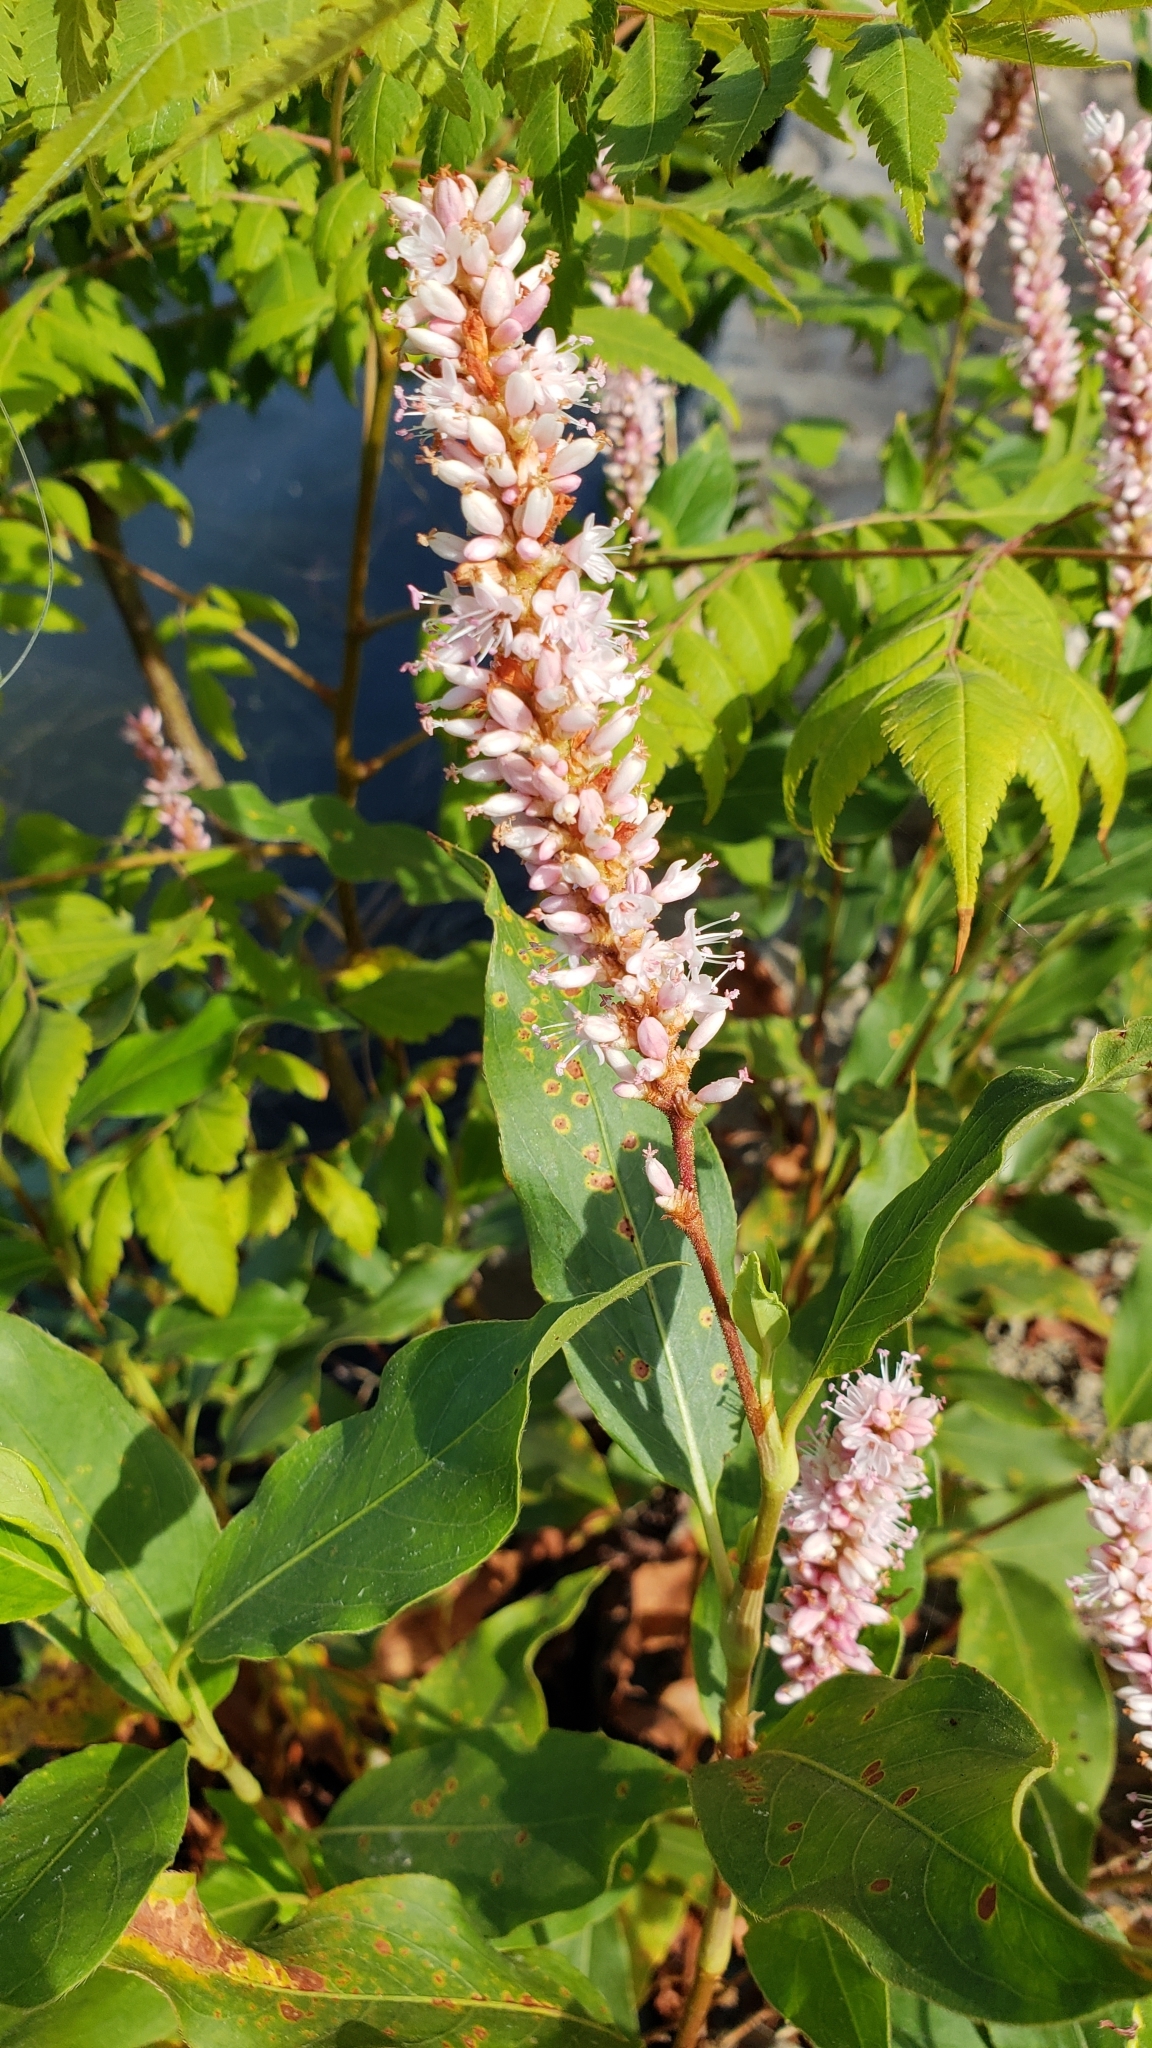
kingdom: Plantae
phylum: Tracheophyta
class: Magnoliopsida
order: Caryophyllales
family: Polygonaceae
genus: Persicaria
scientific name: Persicaria amphibia
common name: Amphibious bistort
